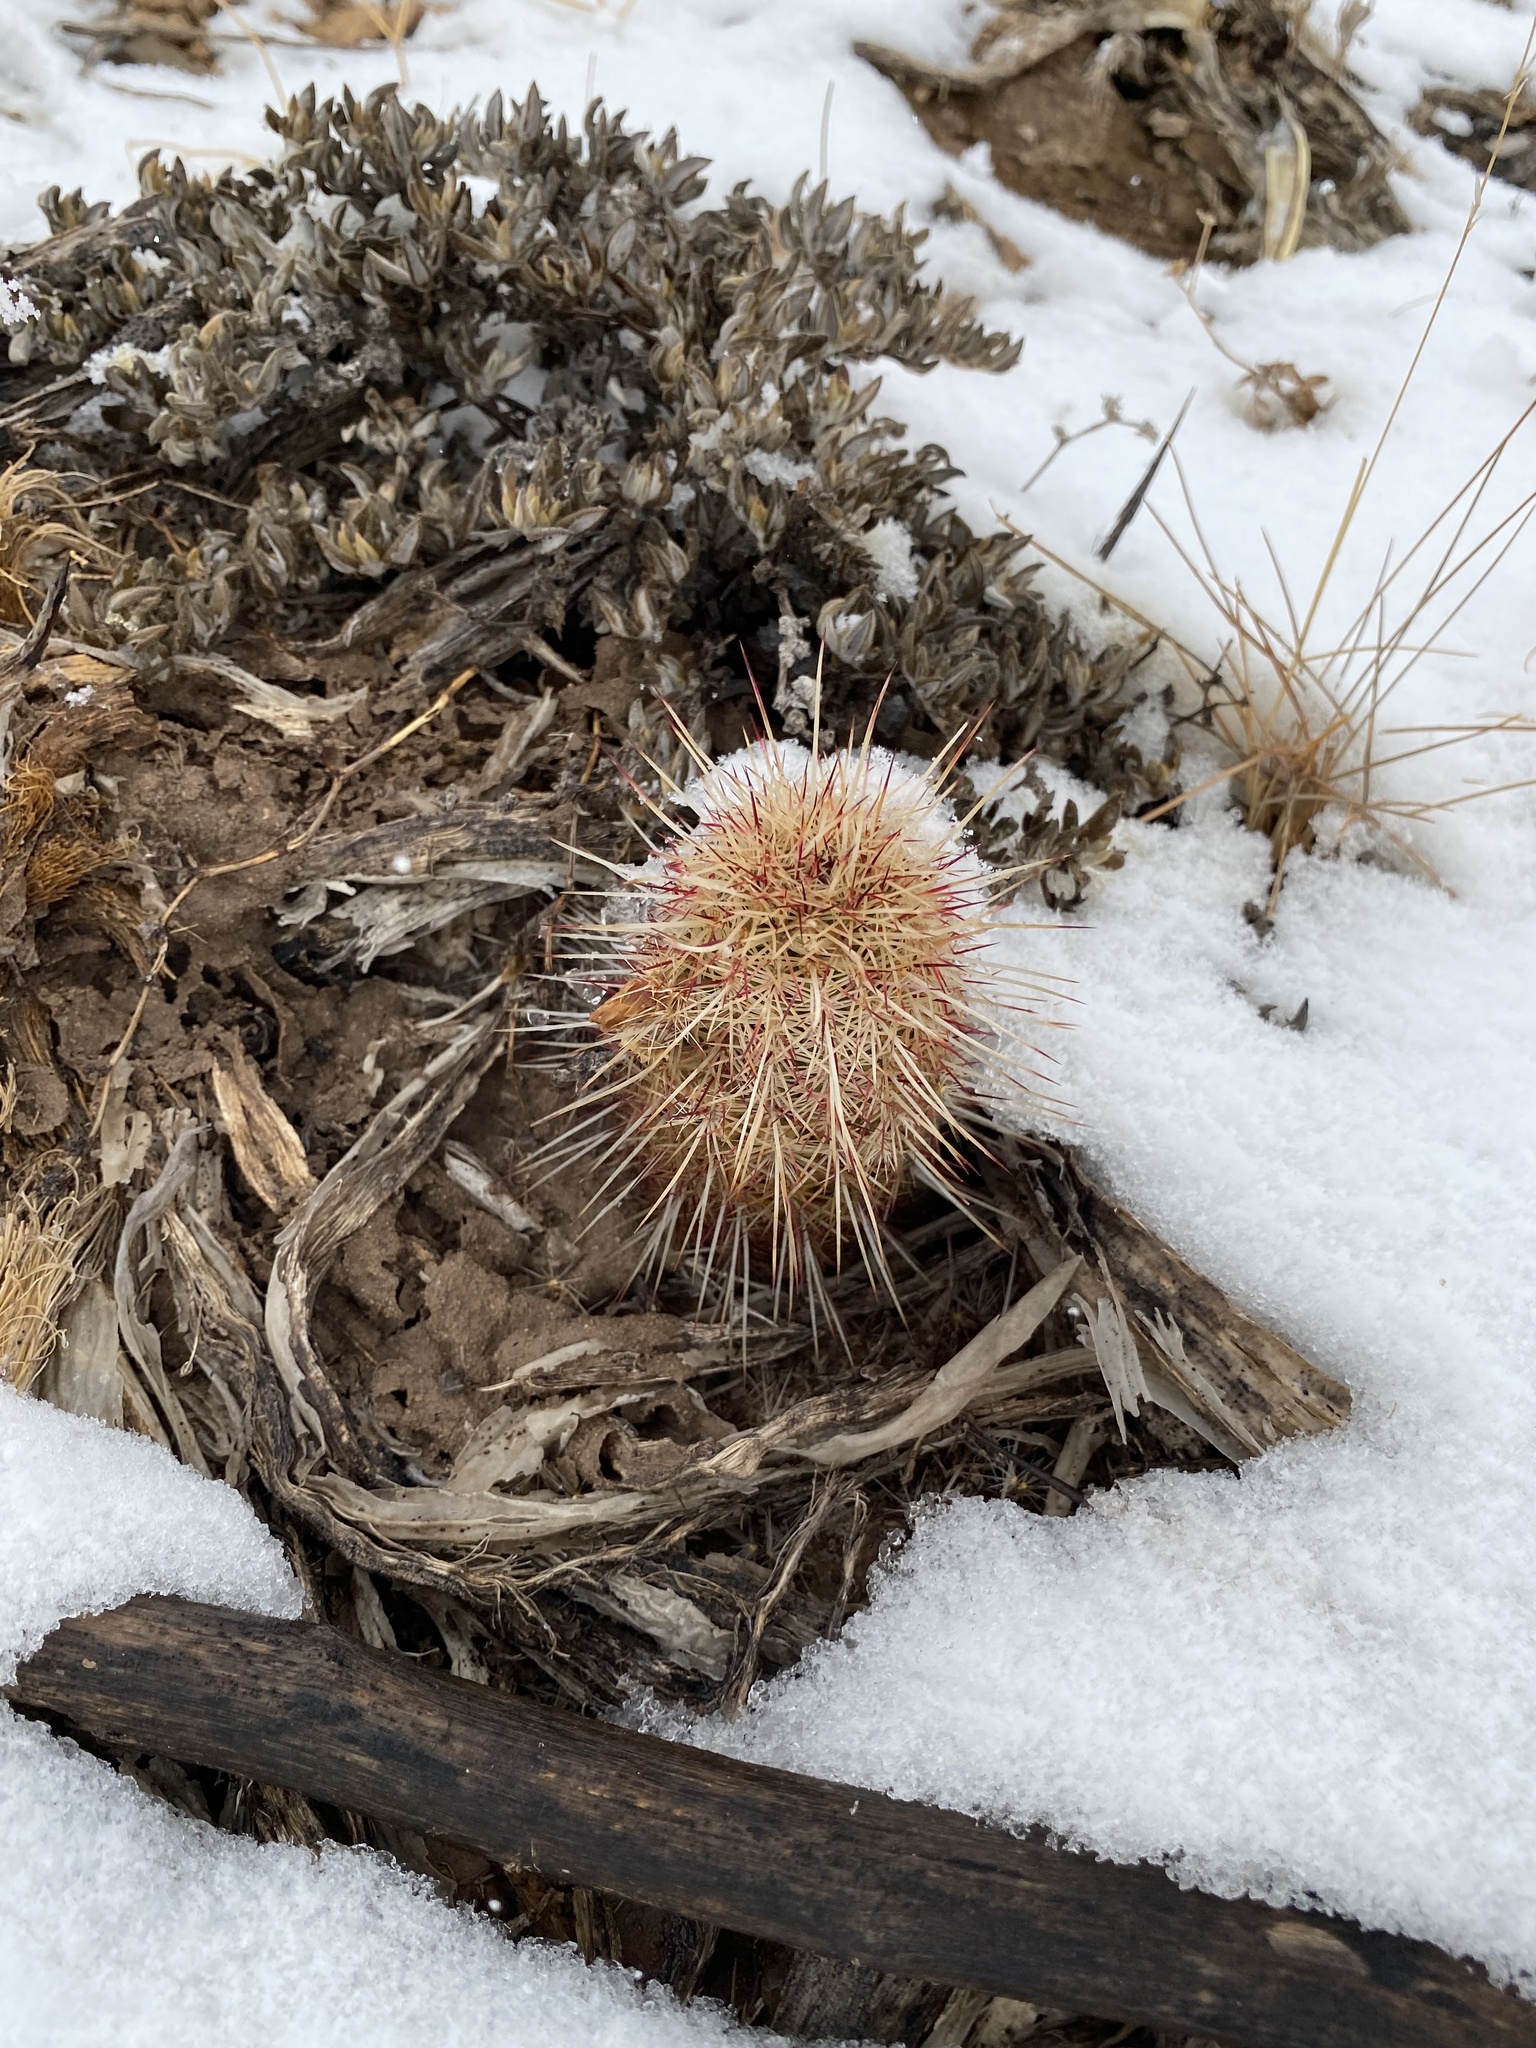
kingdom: Plantae
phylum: Tracheophyta
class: Magnoliopsida
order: Caryophyllales
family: Cactaceae
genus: Echinocereus
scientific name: Echinocereus viridiflorus
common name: Nylon hedgehog cactus
